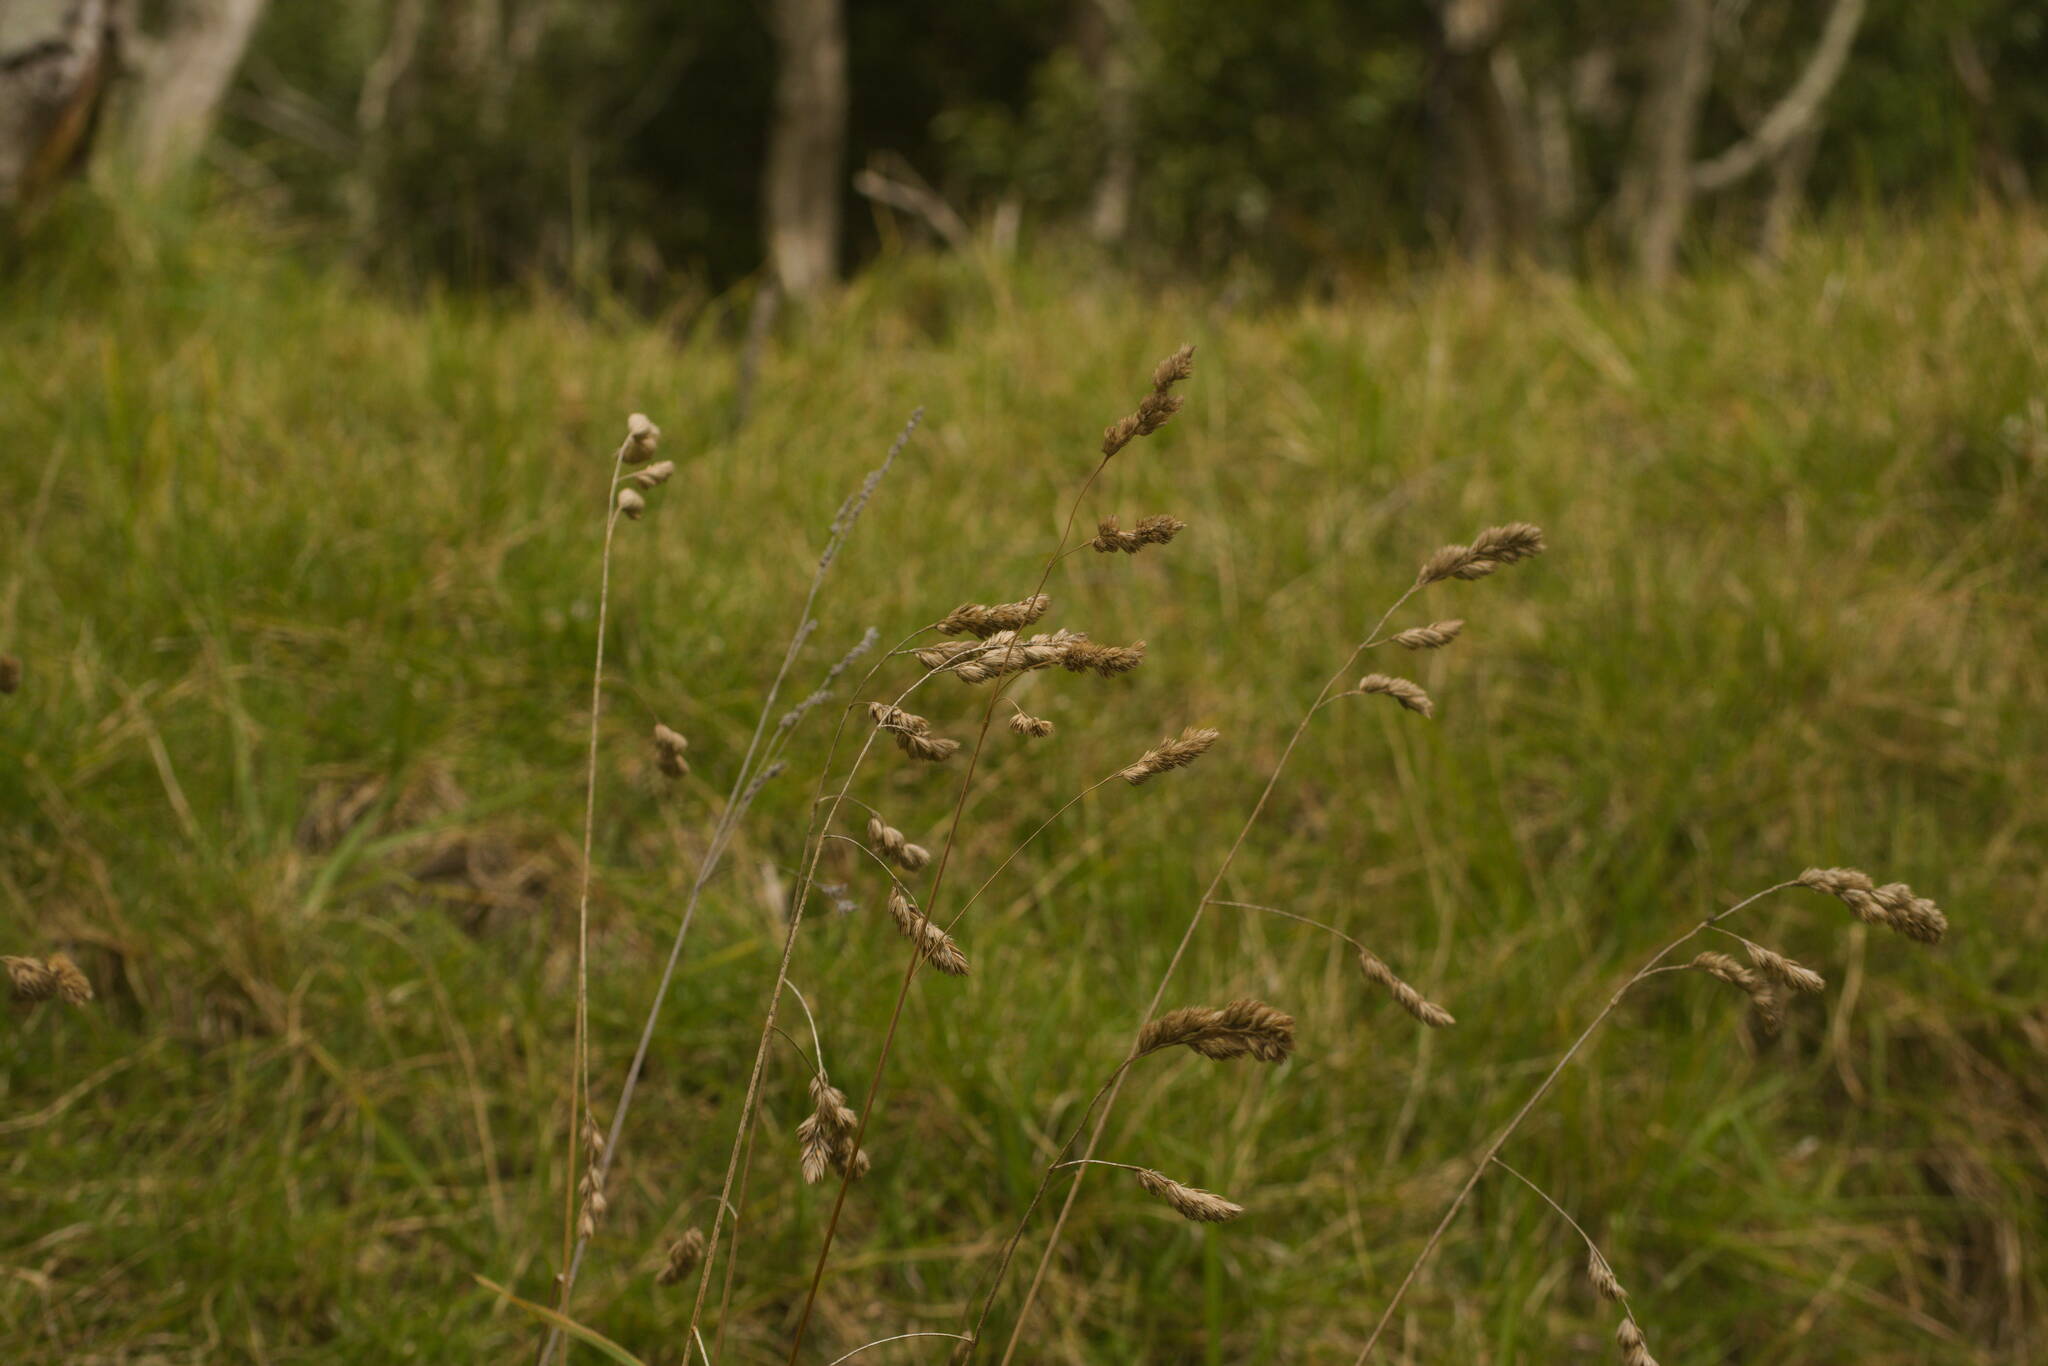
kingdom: Plantae
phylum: Tracheophyta
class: Liliopsida
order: Poales
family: Poaceae
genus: Dactylis
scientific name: Dactylis glomerata
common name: Orchardgrass
